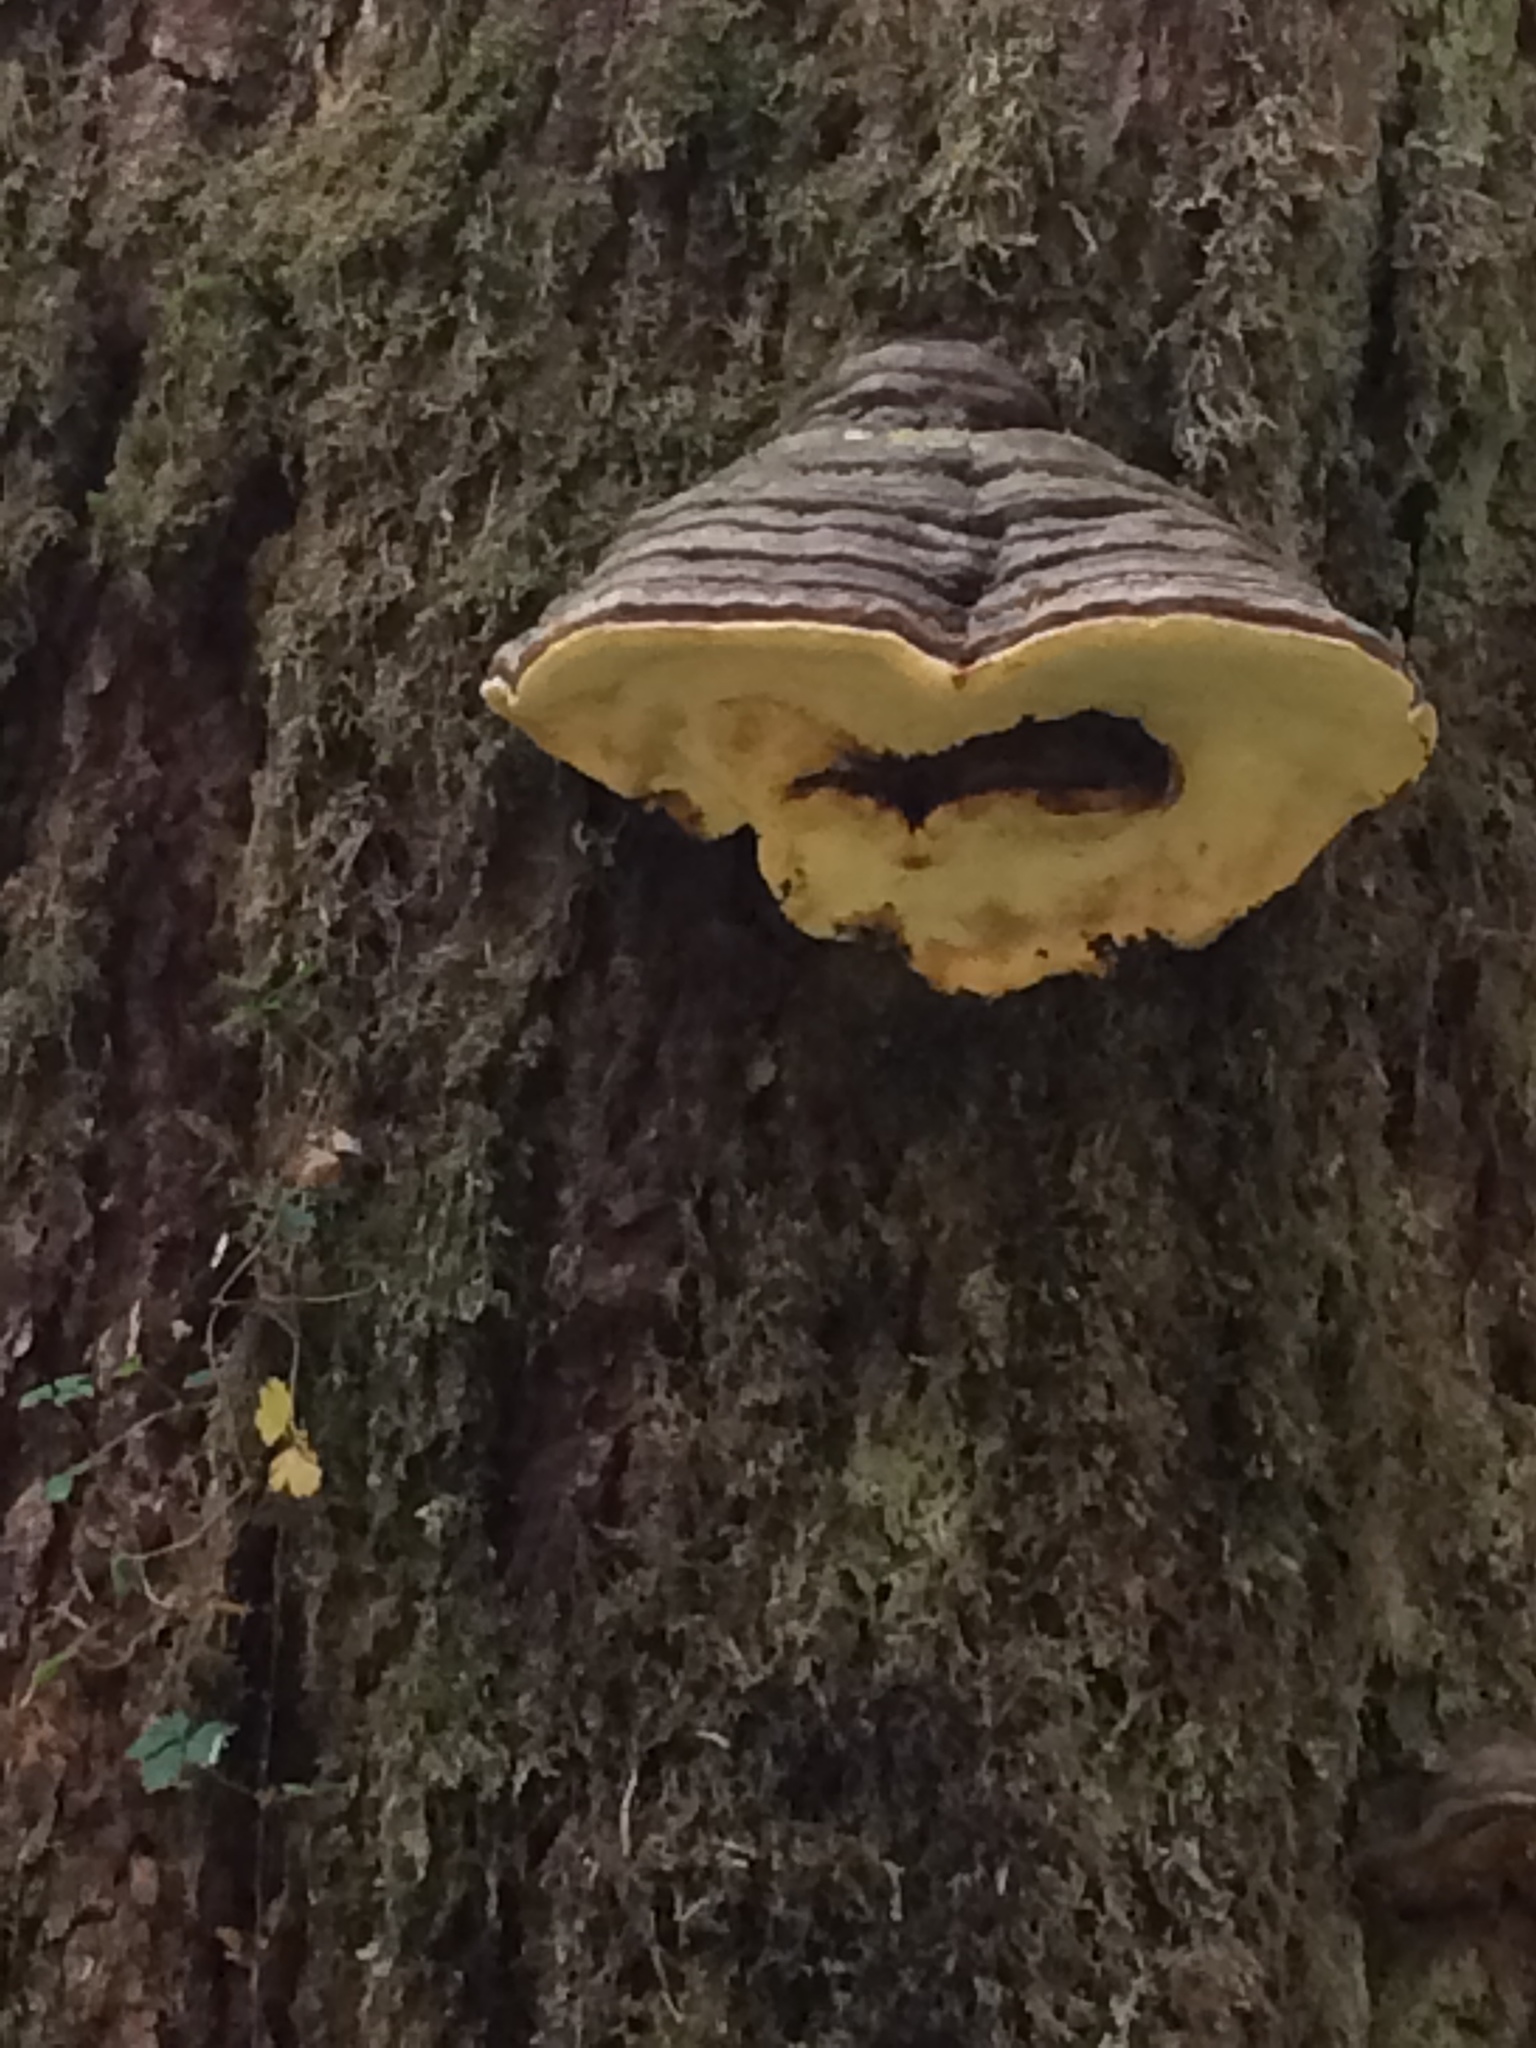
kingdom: Fungi
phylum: Basidiomycota
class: Agaricomycetes
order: Polyporales
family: Polyporaceae
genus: Fomes
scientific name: Fomes fomentarius
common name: Hoof fungus
